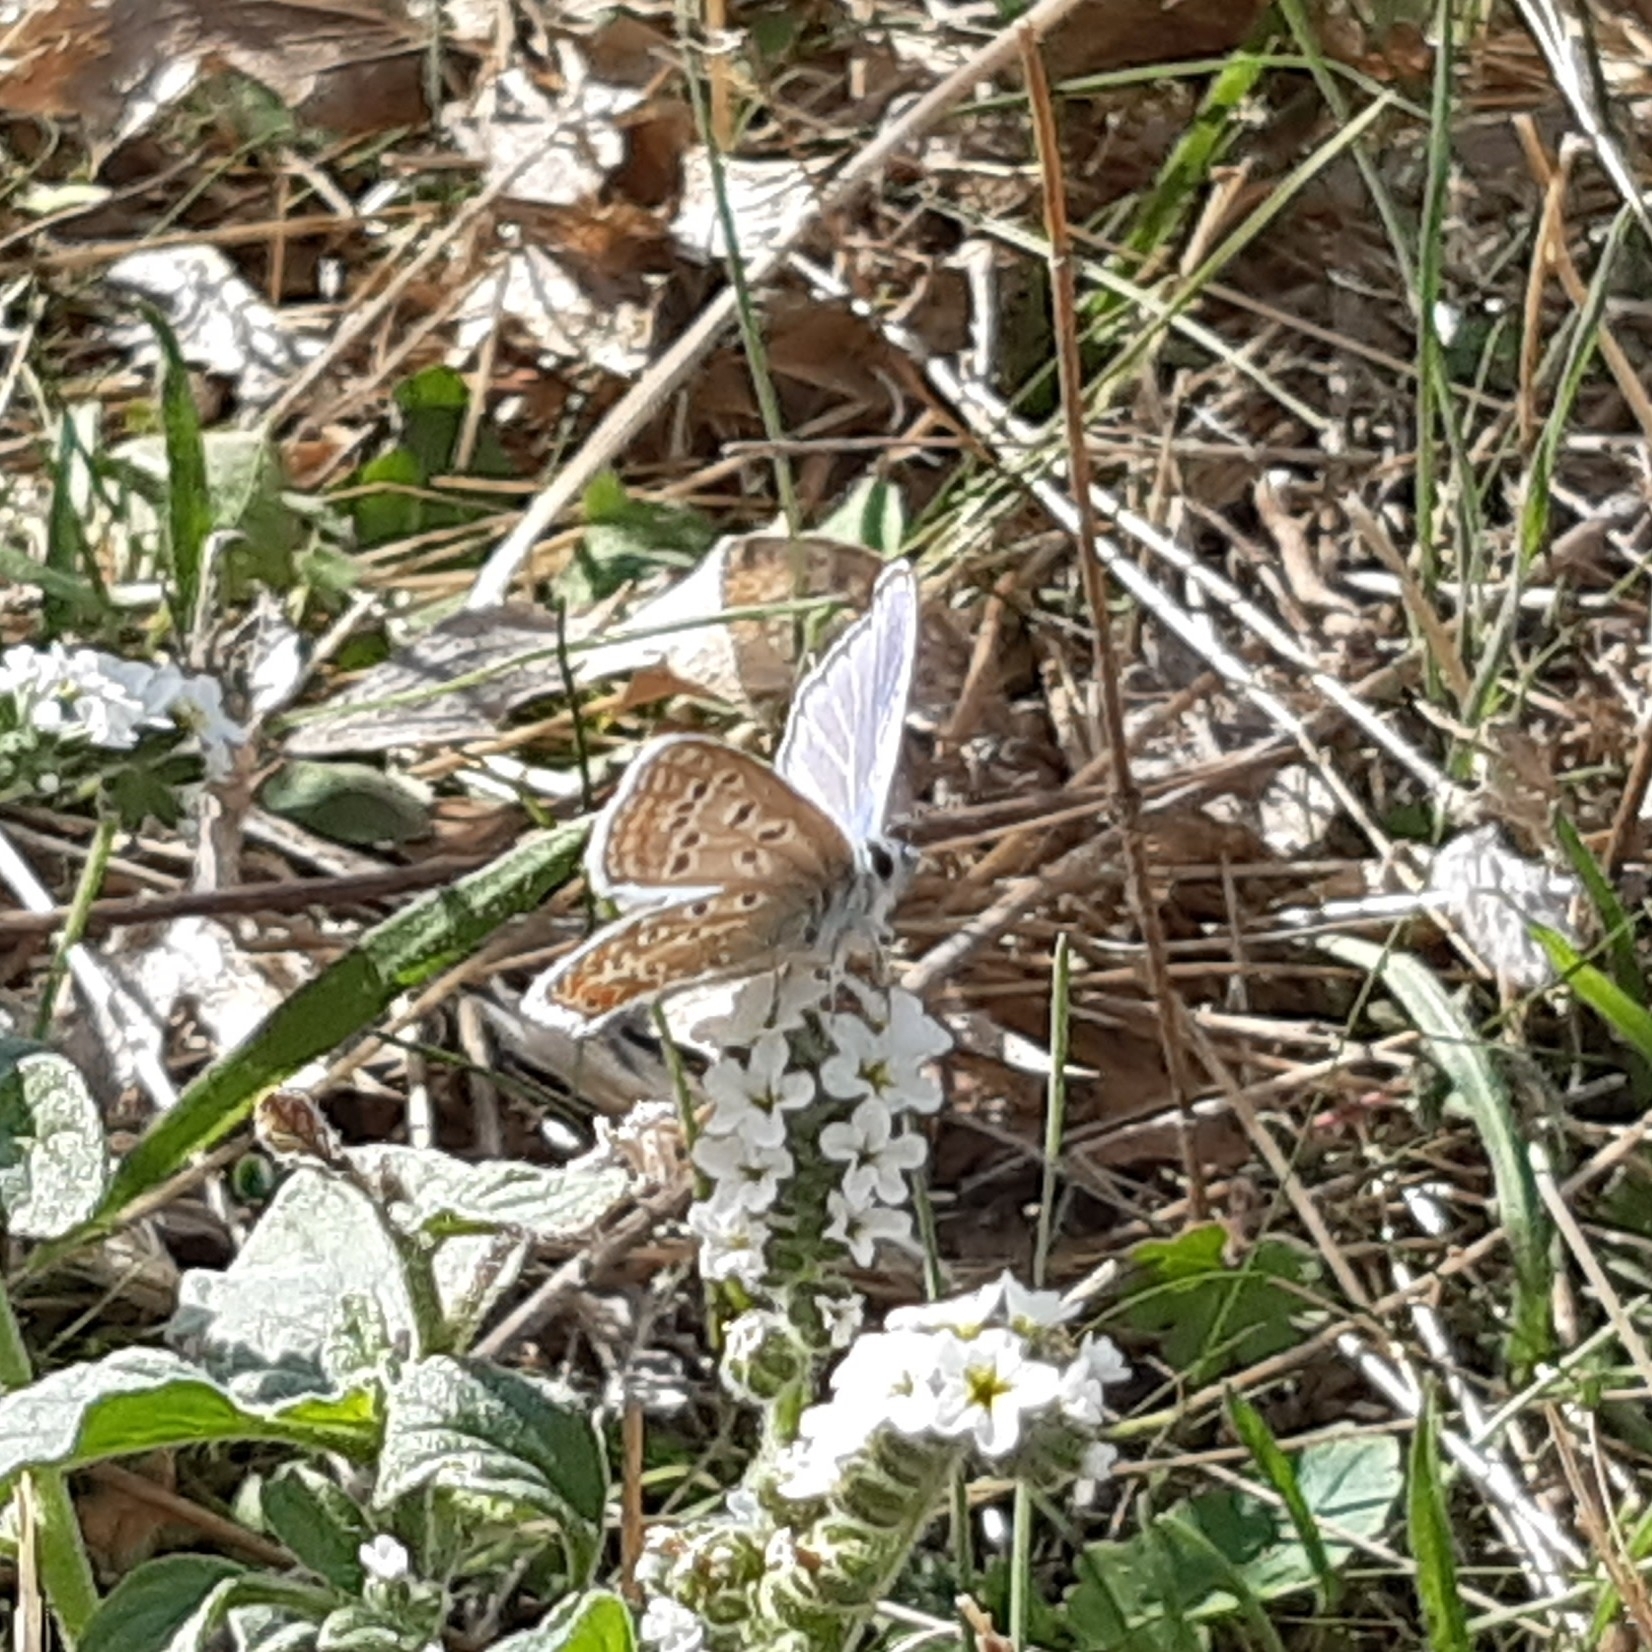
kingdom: Animalia
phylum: Arthropoda
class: Insecta
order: Lepidoptera
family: Lycaenidae
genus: Polyommatus
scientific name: Polyommatus icarus
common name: Common blue
